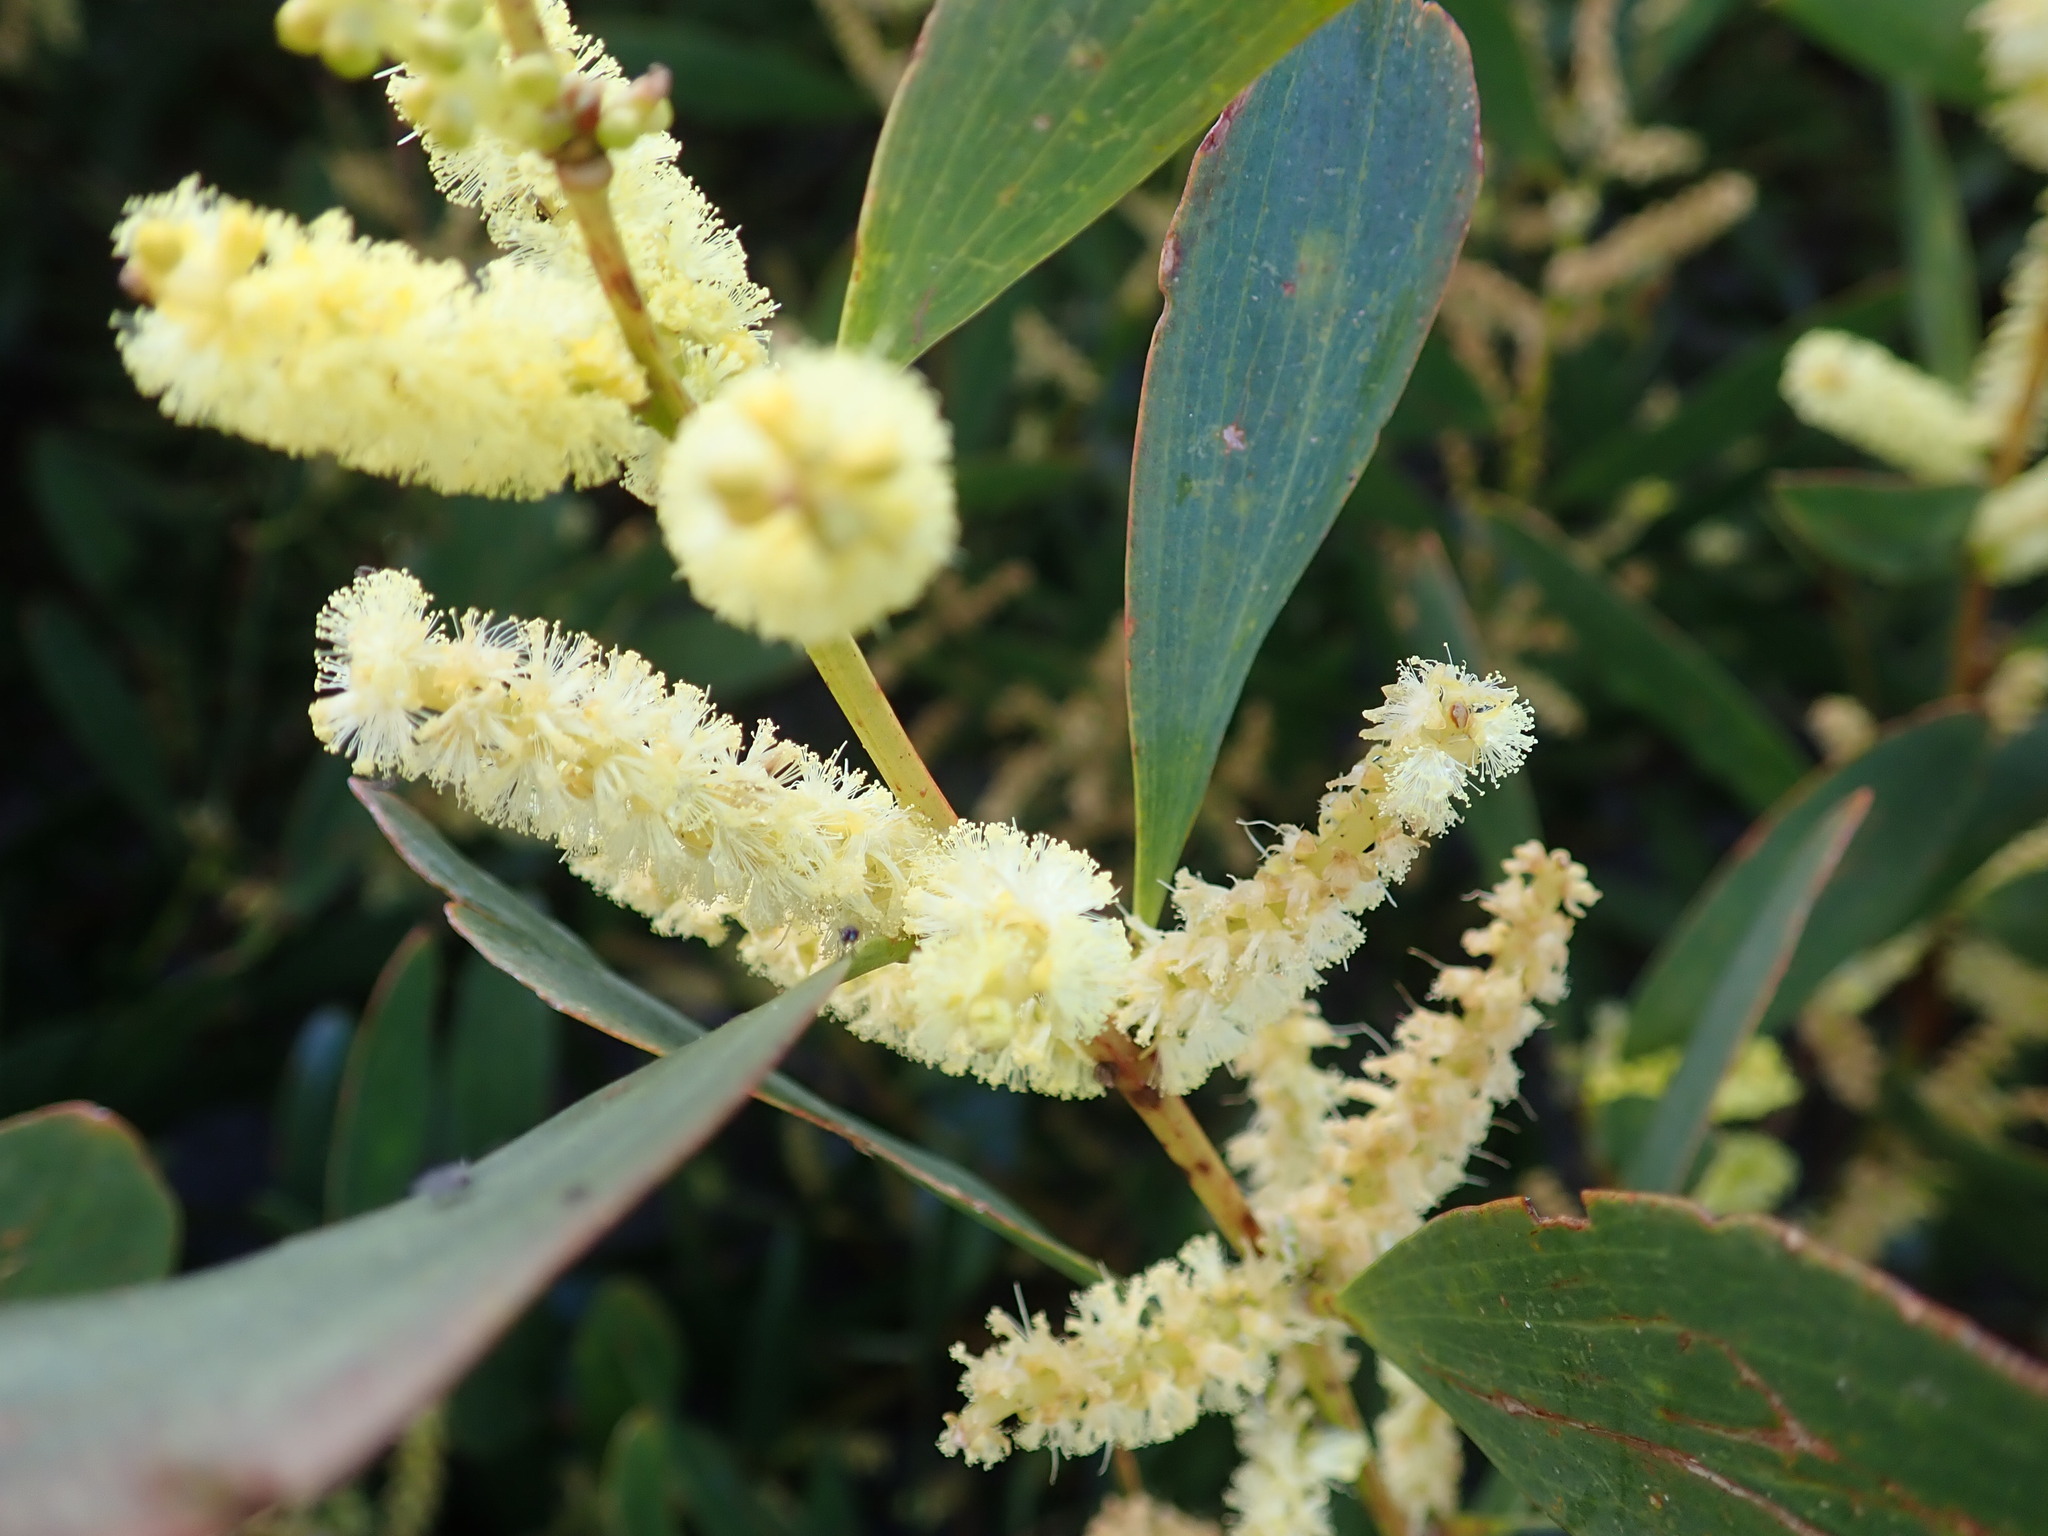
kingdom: Plantae
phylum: Tracheophyta
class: Magnoliopsida
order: Fabales
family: Fabaceae
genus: Acacia
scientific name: Acacia longifolia
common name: Sydney golden wattle
